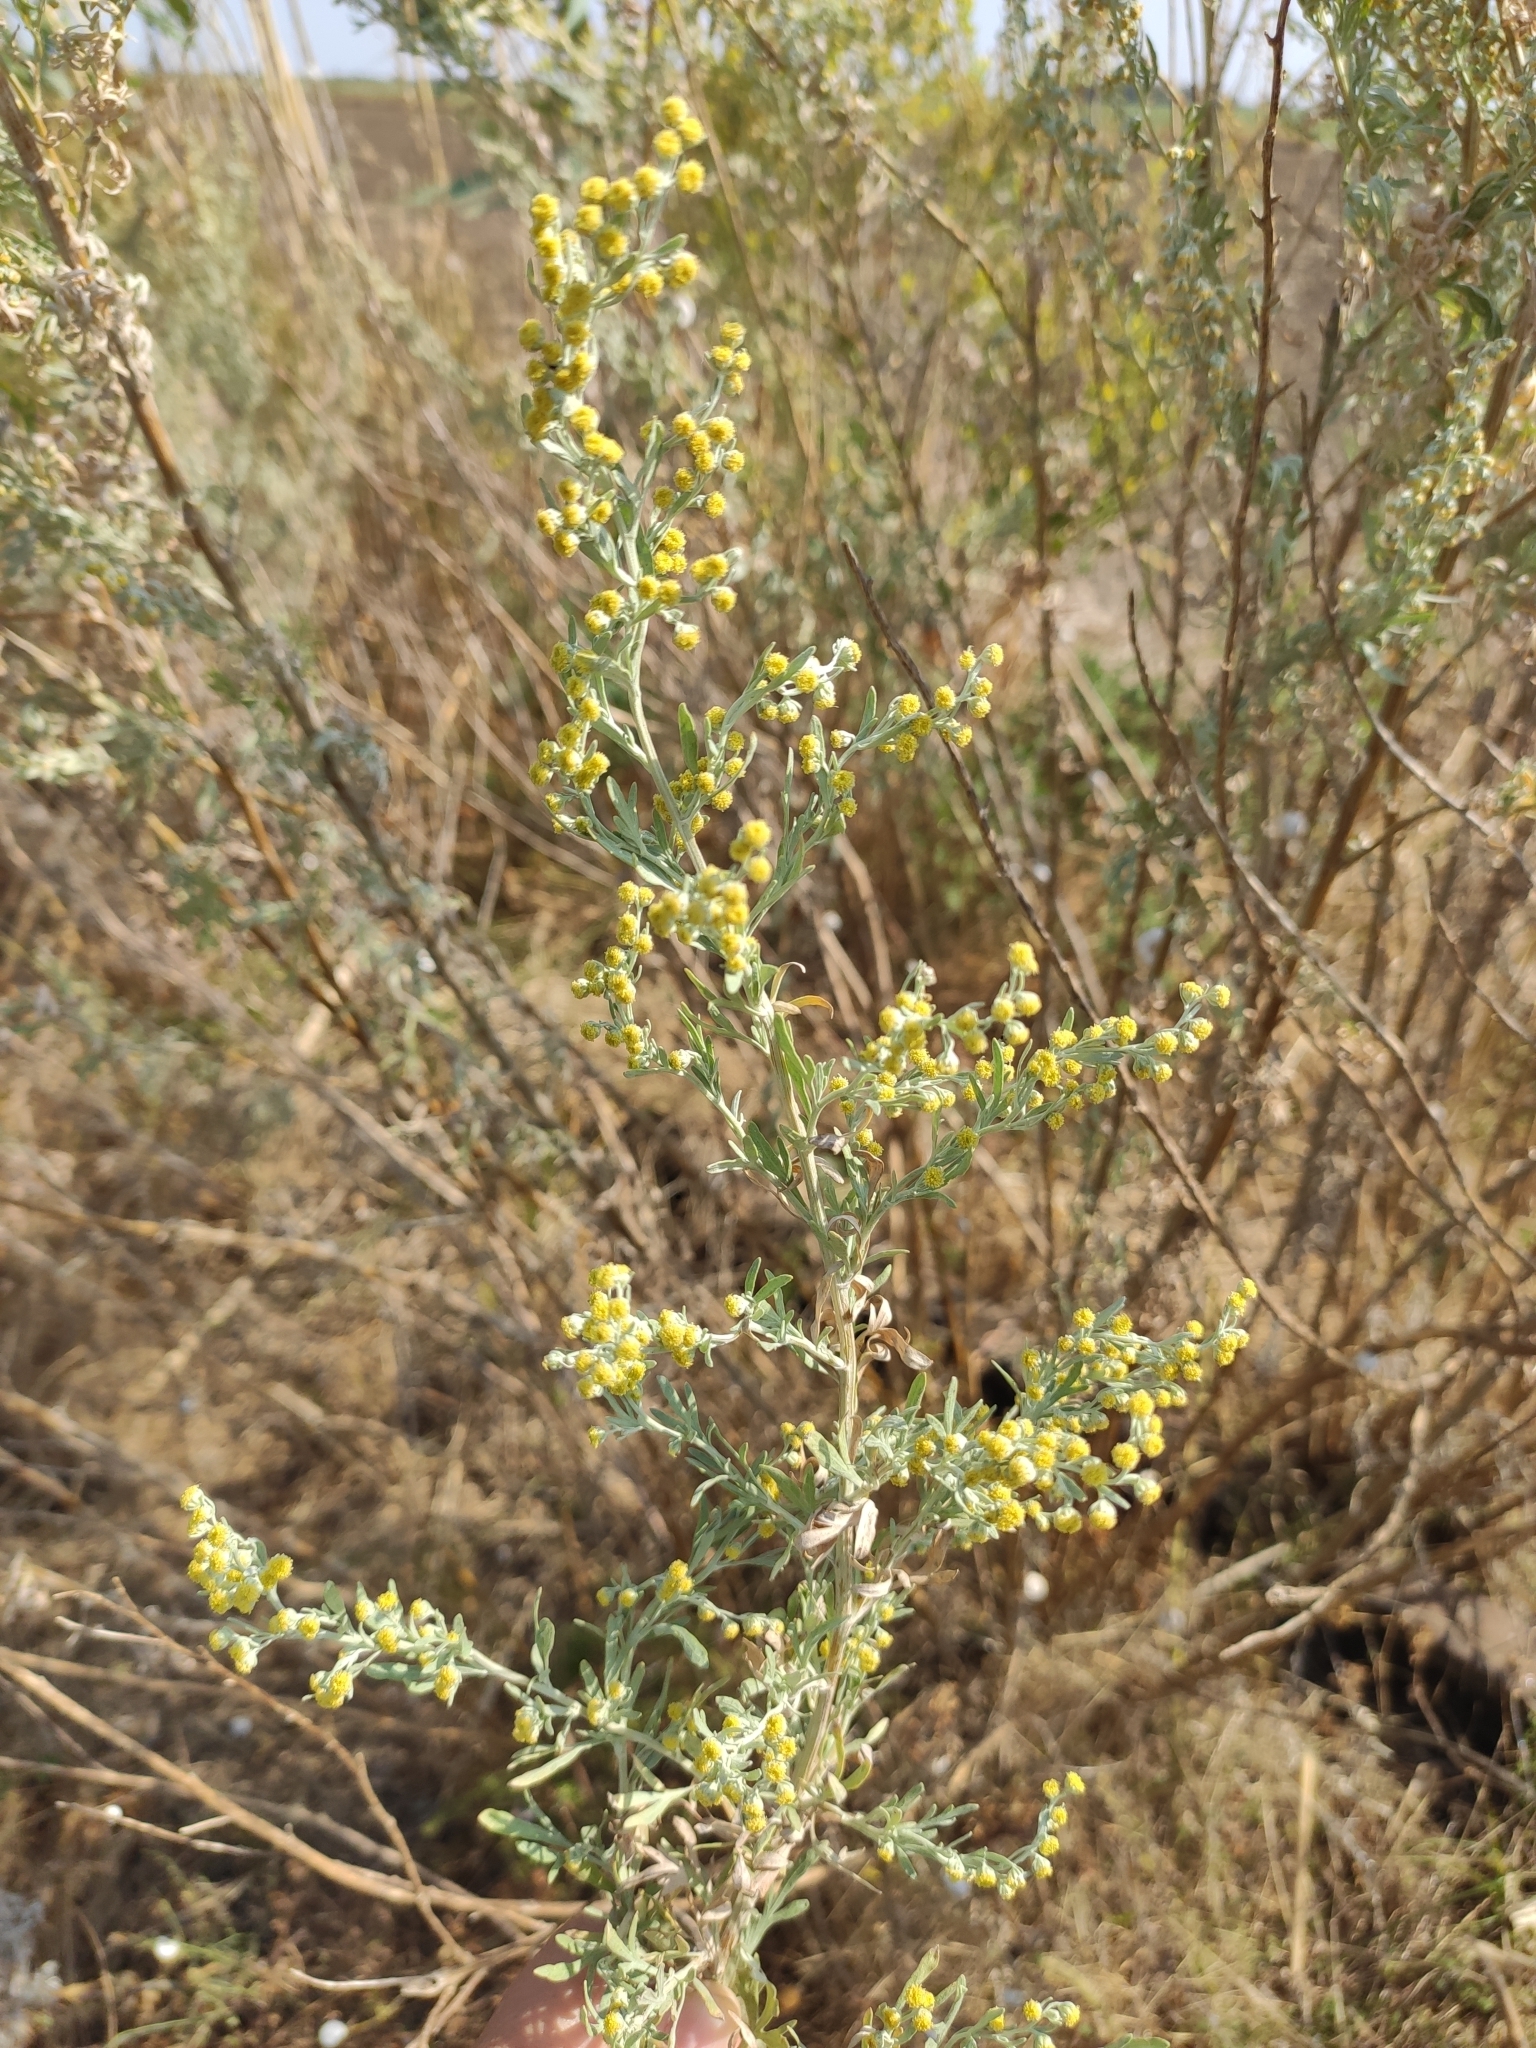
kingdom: Plantae
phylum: Tracheophyta
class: Magnoliopsida
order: Asterales
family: Asteraceae
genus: Artemisia
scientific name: Artemisia absinthium
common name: Wormwood
